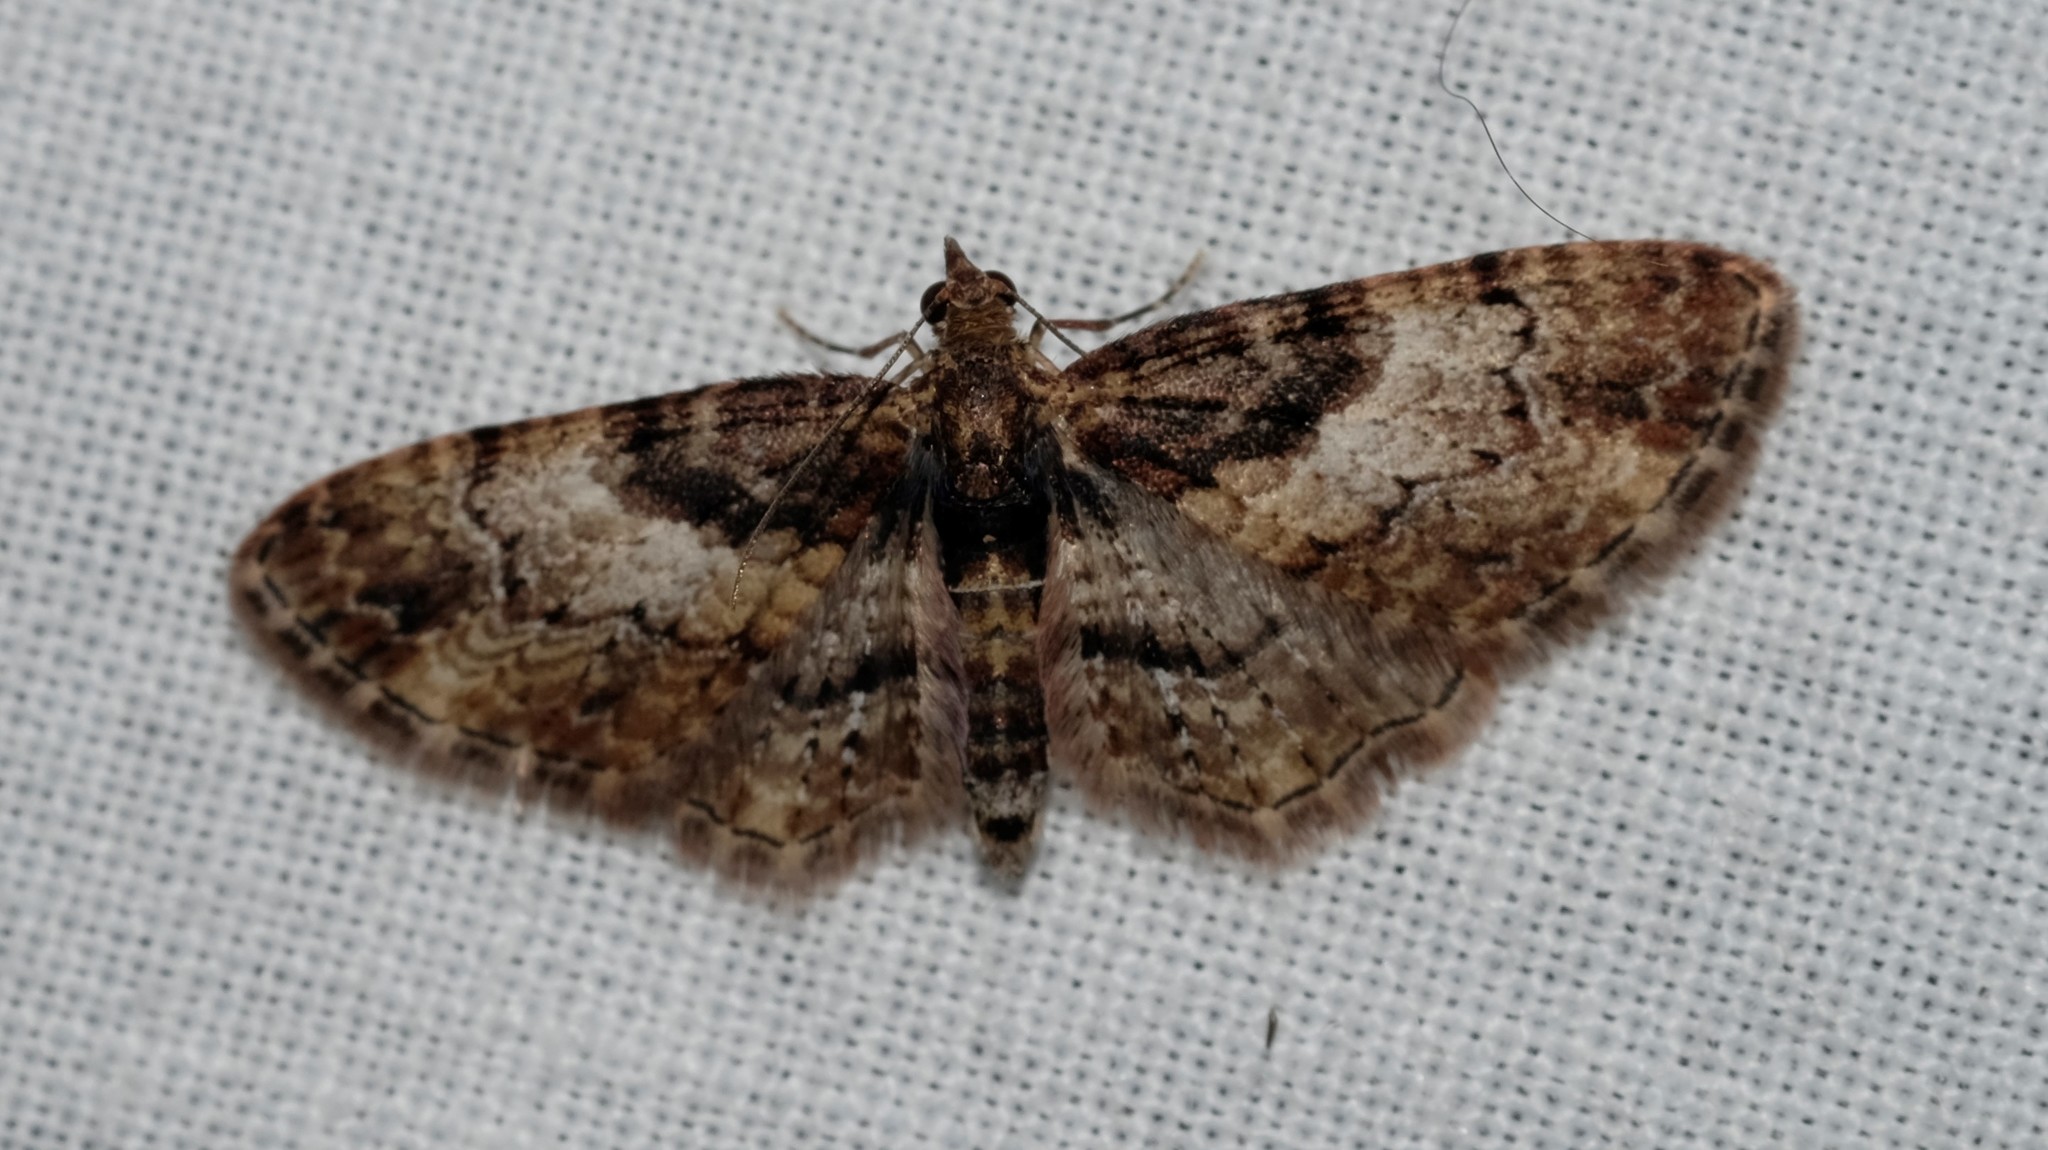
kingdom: Animalia
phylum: Arthropoda
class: Insecta
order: Lepidoptera
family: Geometridae
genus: Chloroclystis
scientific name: Chloroclystis approximata
